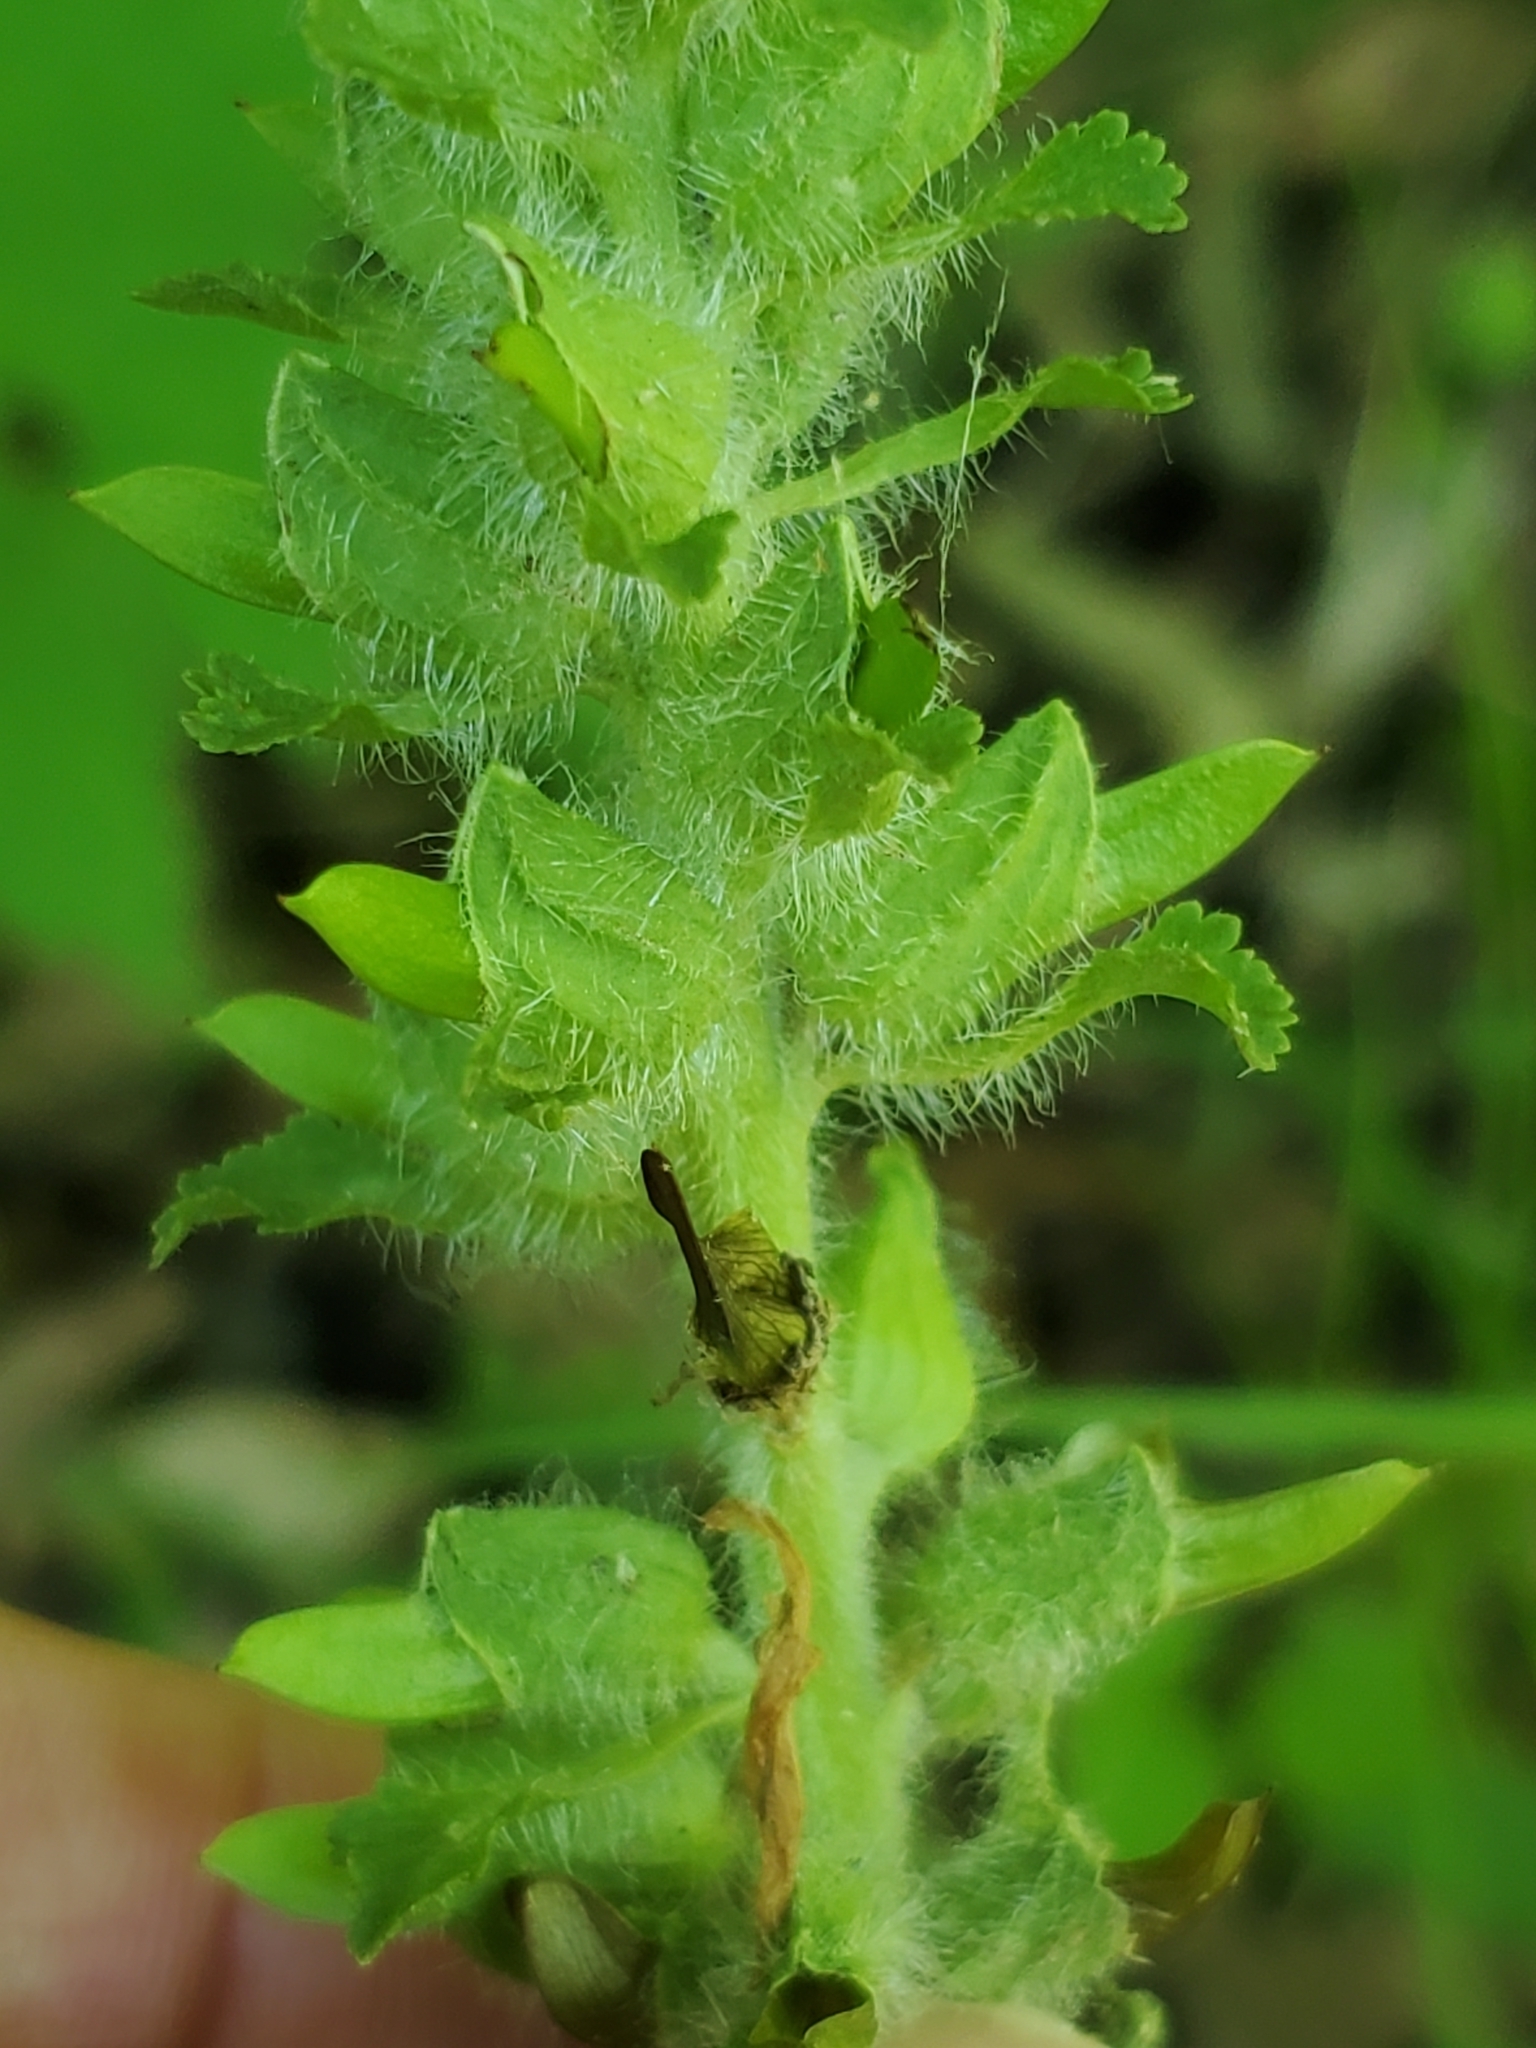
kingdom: Plantae
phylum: Tracheophyta
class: Magnoliopsida
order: Lamiales
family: Orobanchaceae
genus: Pedicularis
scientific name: Pedicularis canadensis
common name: Early lousewort
